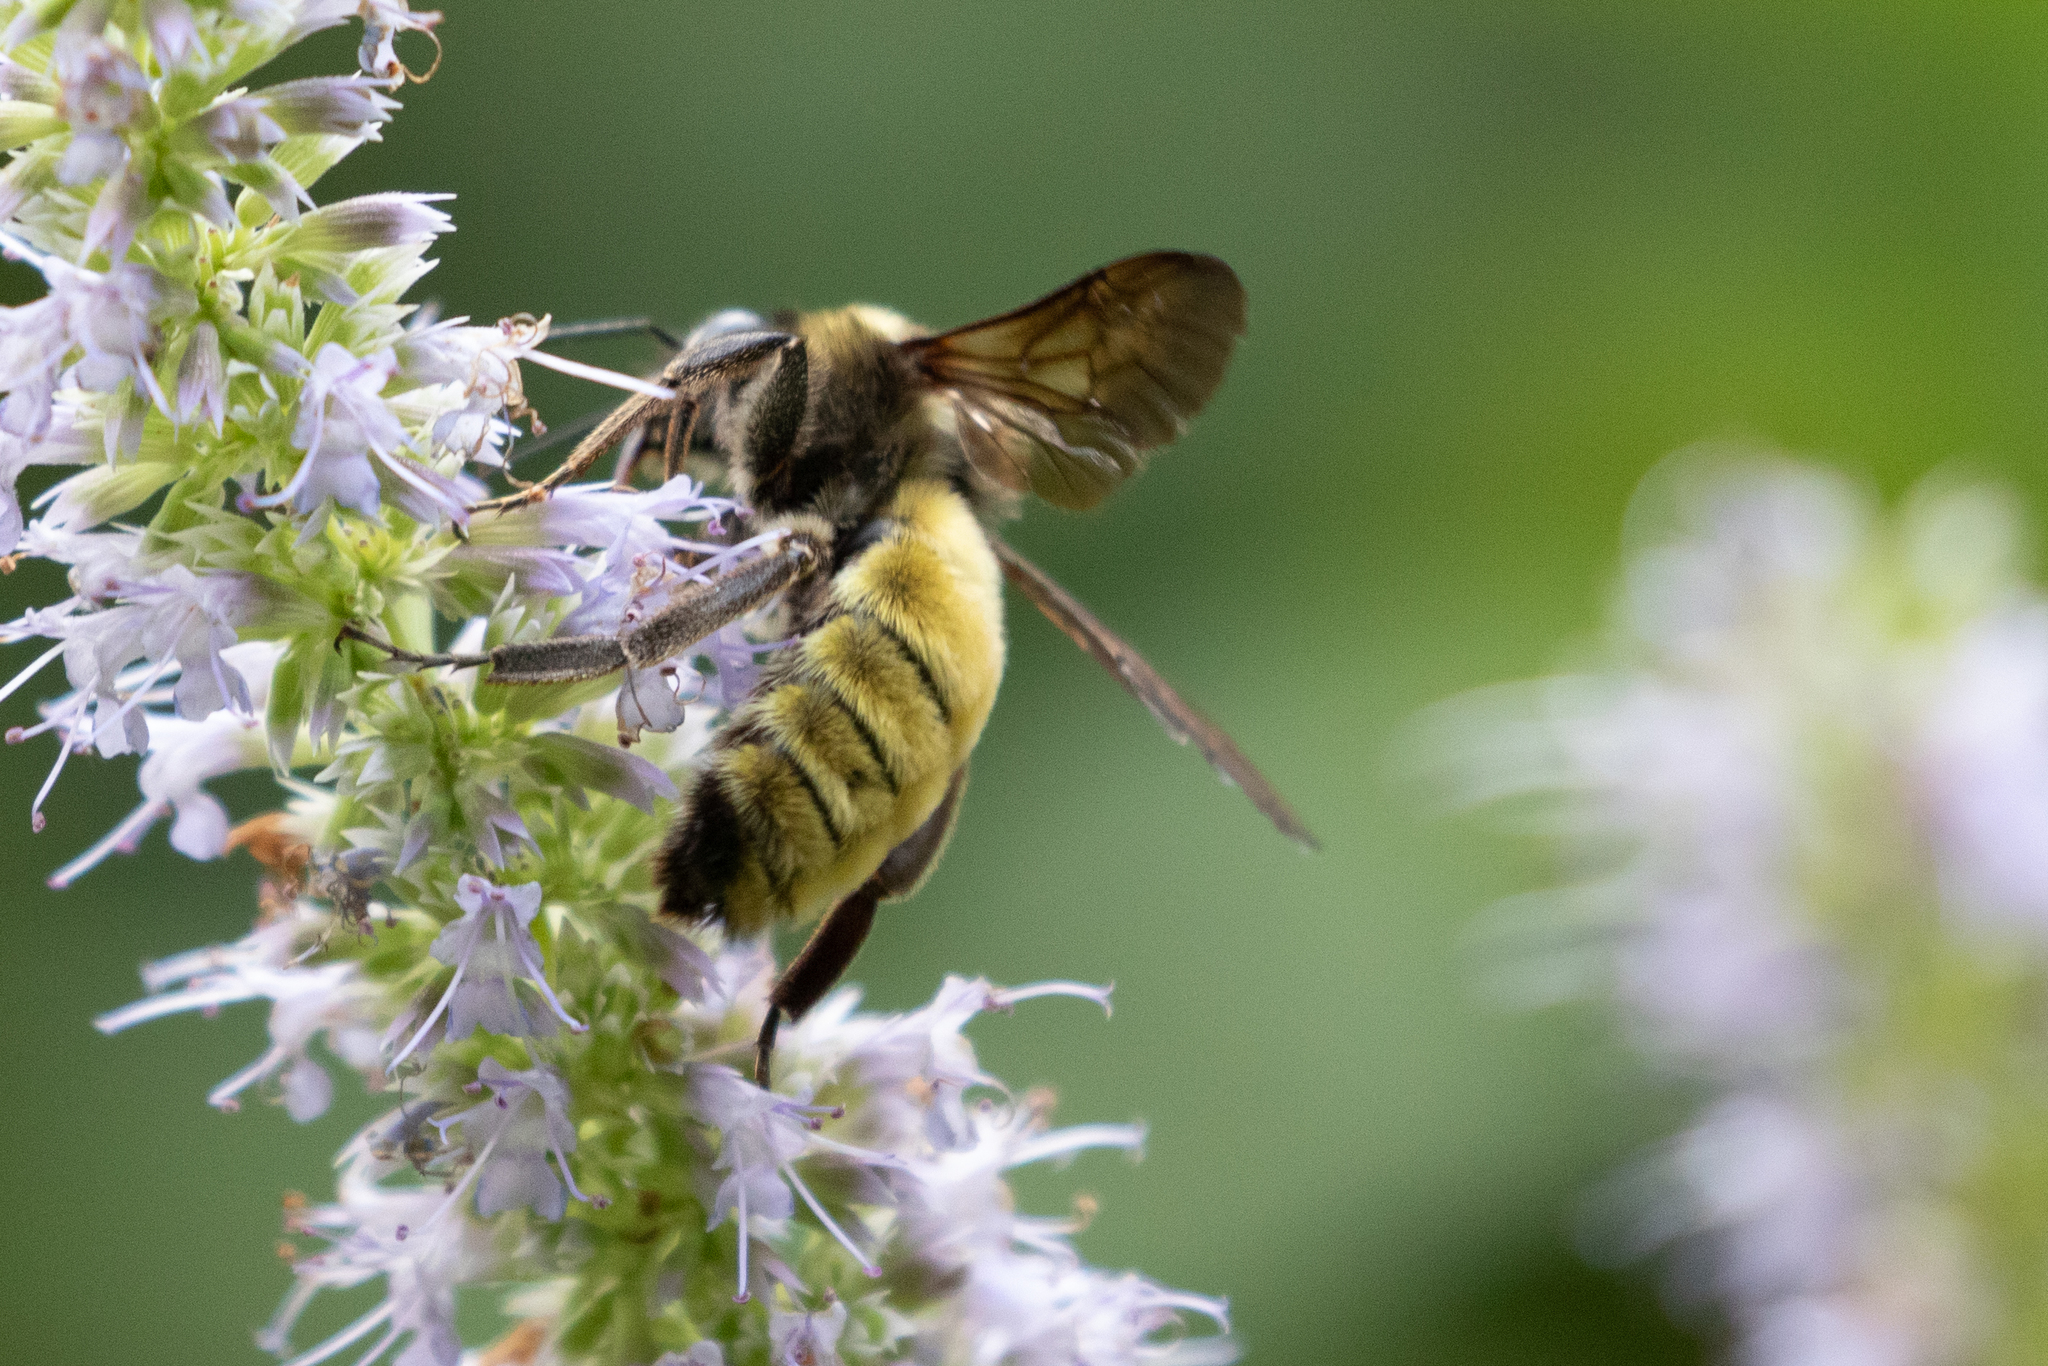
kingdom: Animalia
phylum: Arthropoda
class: Insecta
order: Hymenoptera
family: Apidae
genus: Bombus
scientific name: Bombus pensylvanicus
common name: Bumble bee
